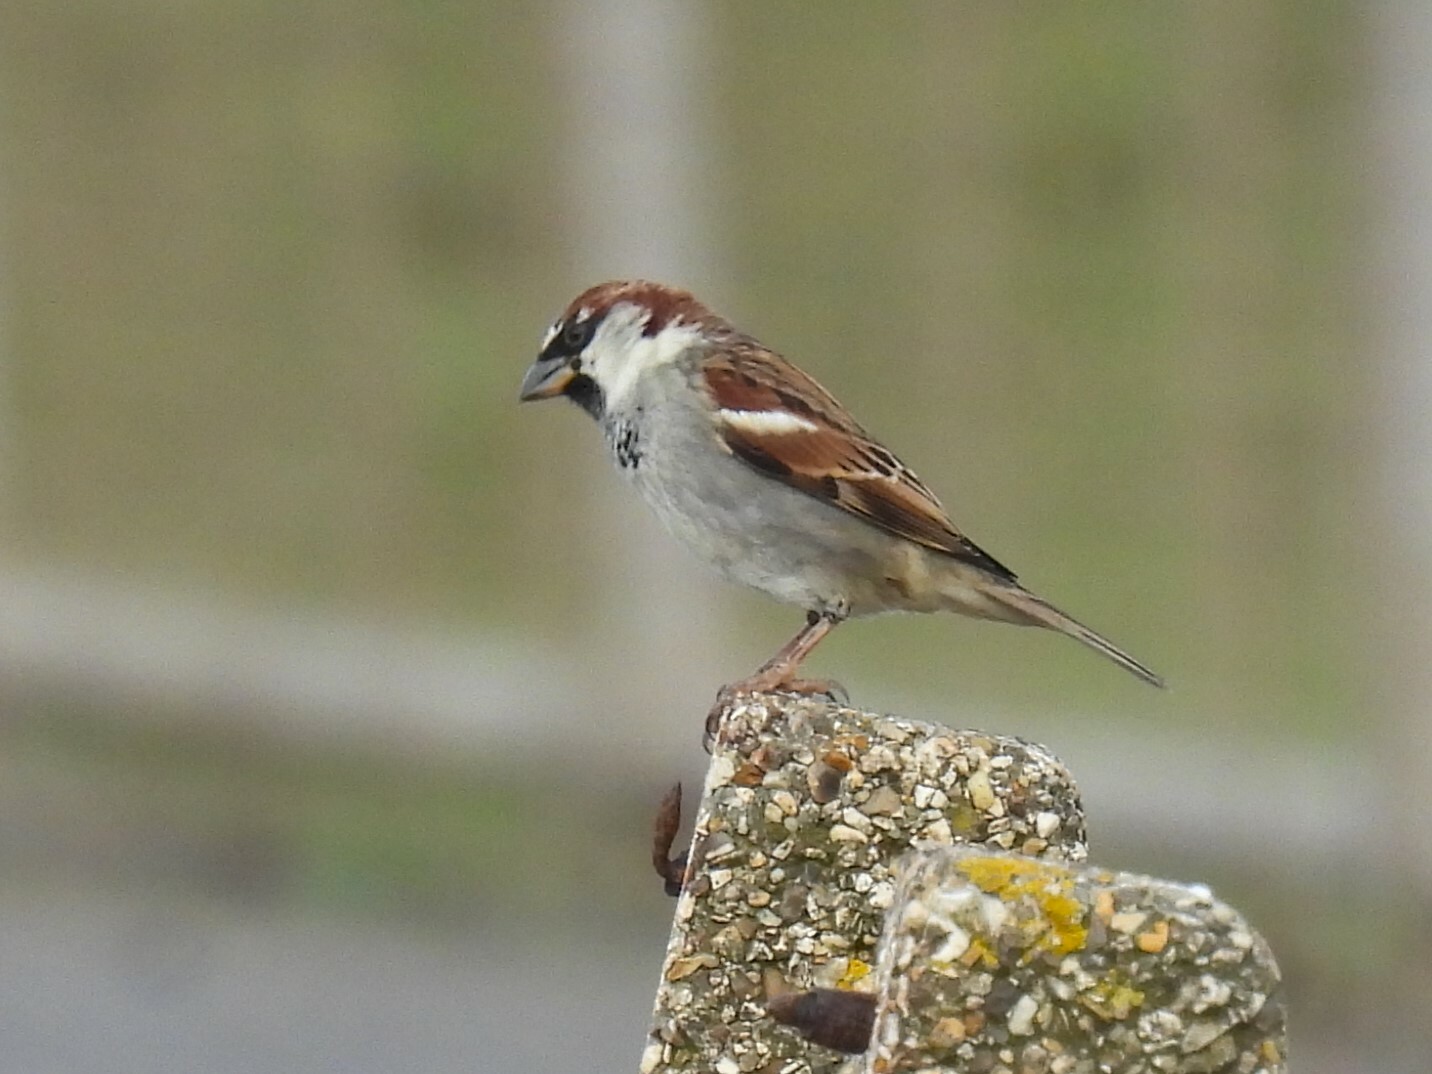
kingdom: Animalia
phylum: Chordata
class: Aves
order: Passeriformes
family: Passeridae
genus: Passer
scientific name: Passer domesticus
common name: House sparrow
